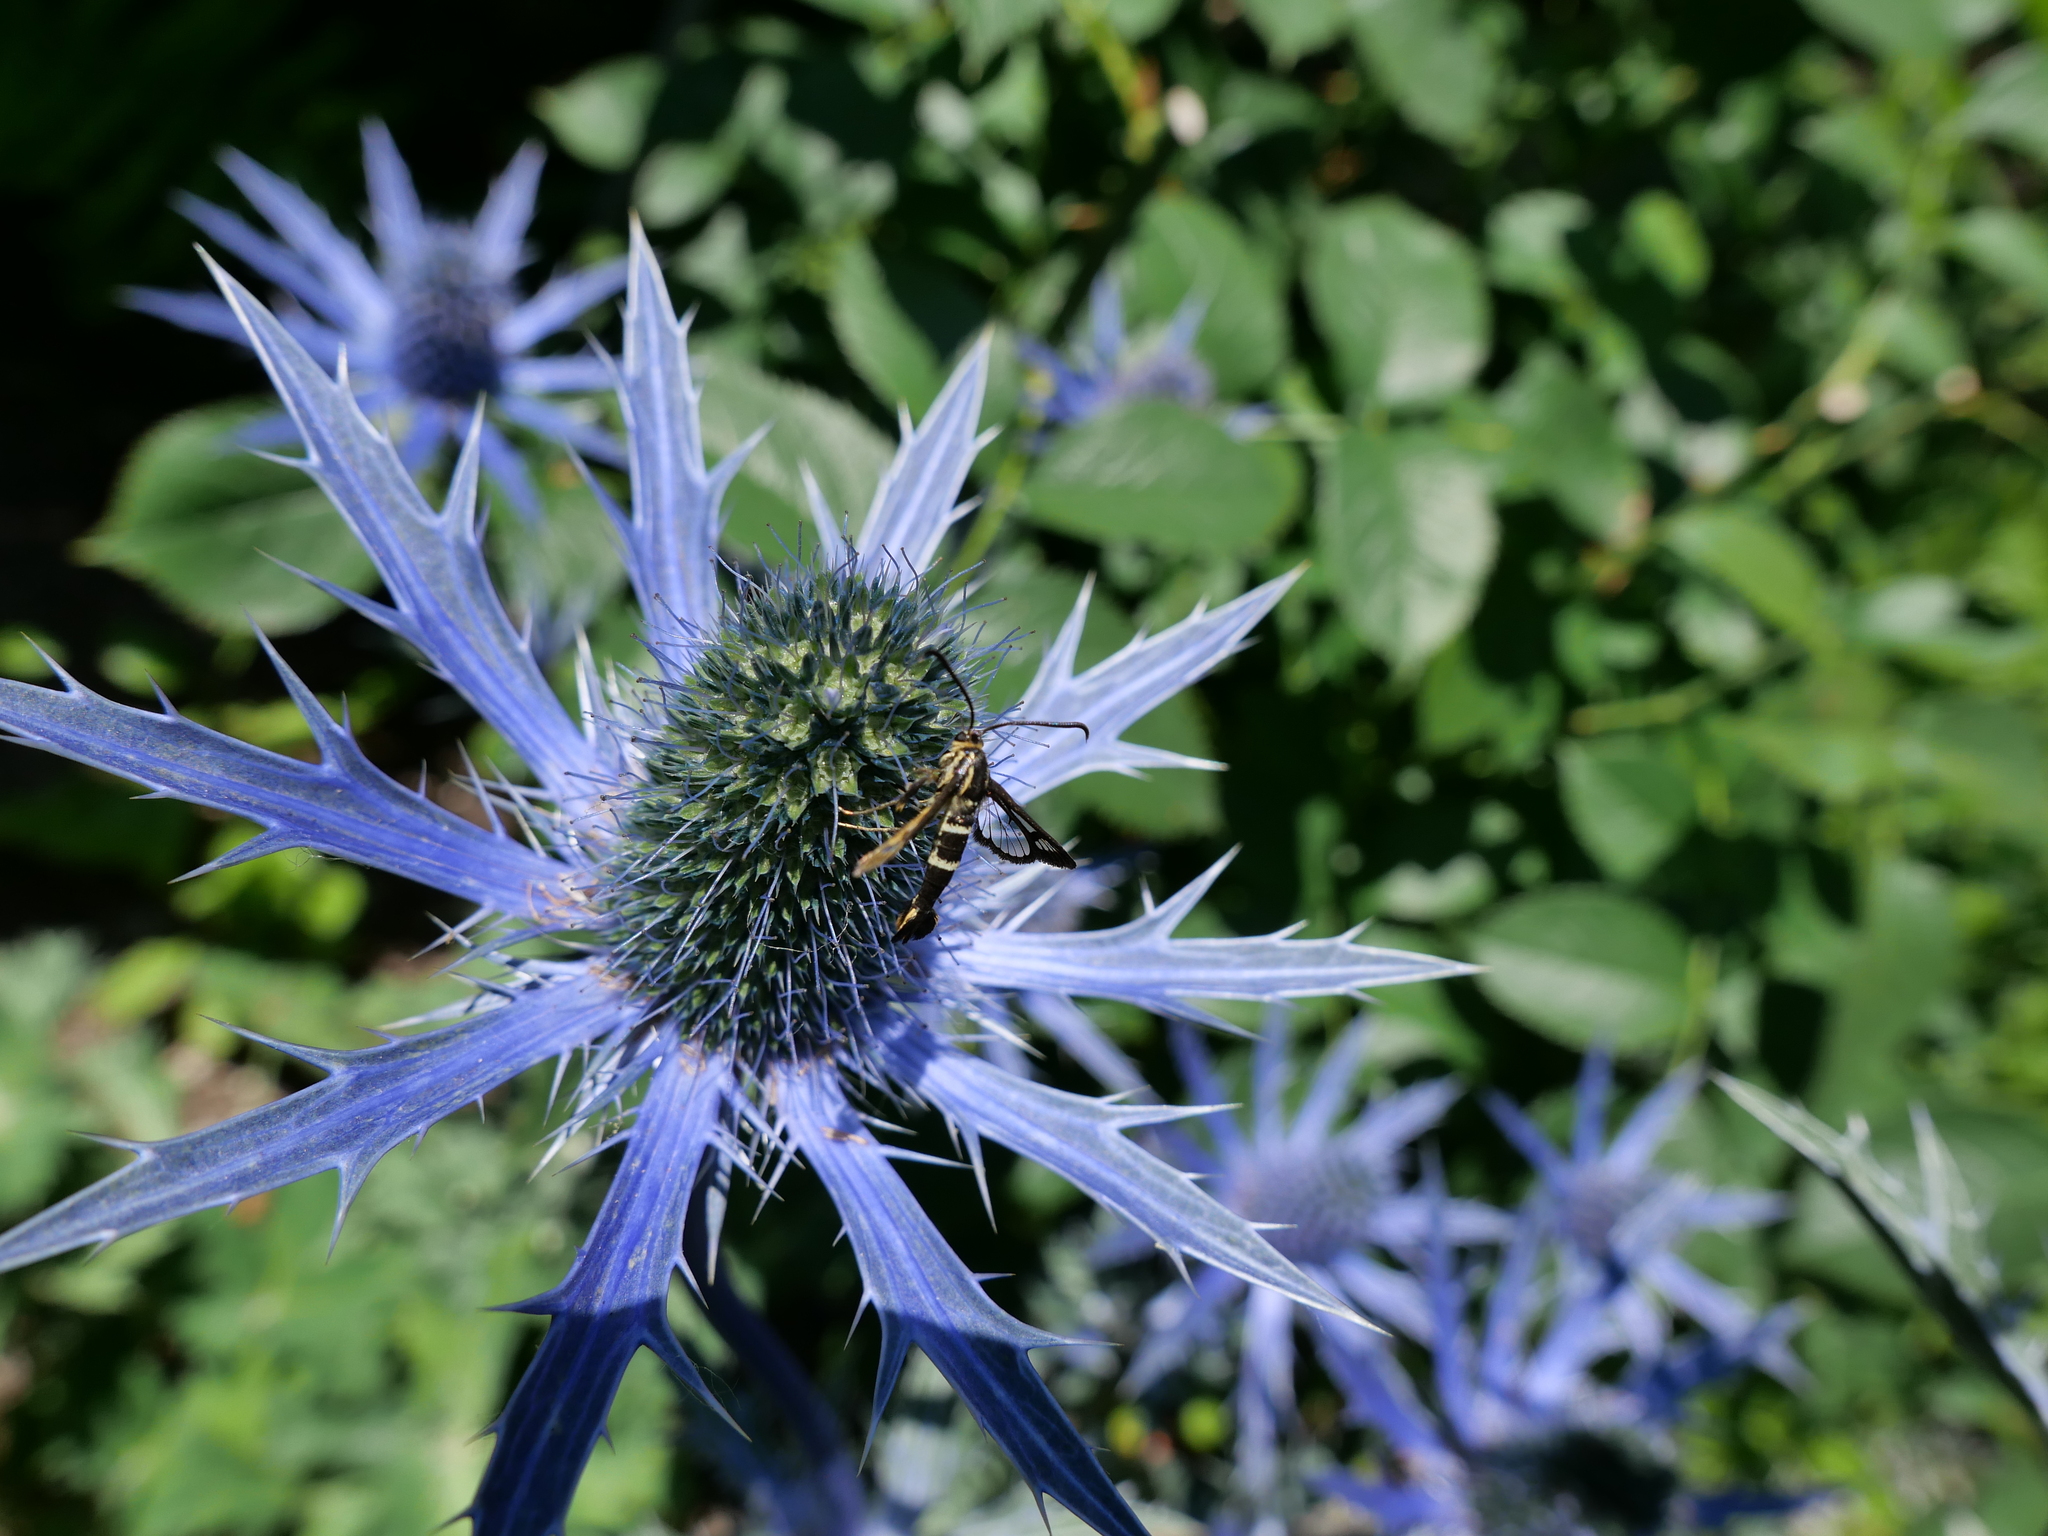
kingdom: Animalia
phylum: Arthropoda
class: Insecta
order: Lepidoptera
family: Sesiidae
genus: Synanthedon
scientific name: Synanthedon bibionipennis
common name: Strawberry crown moth
